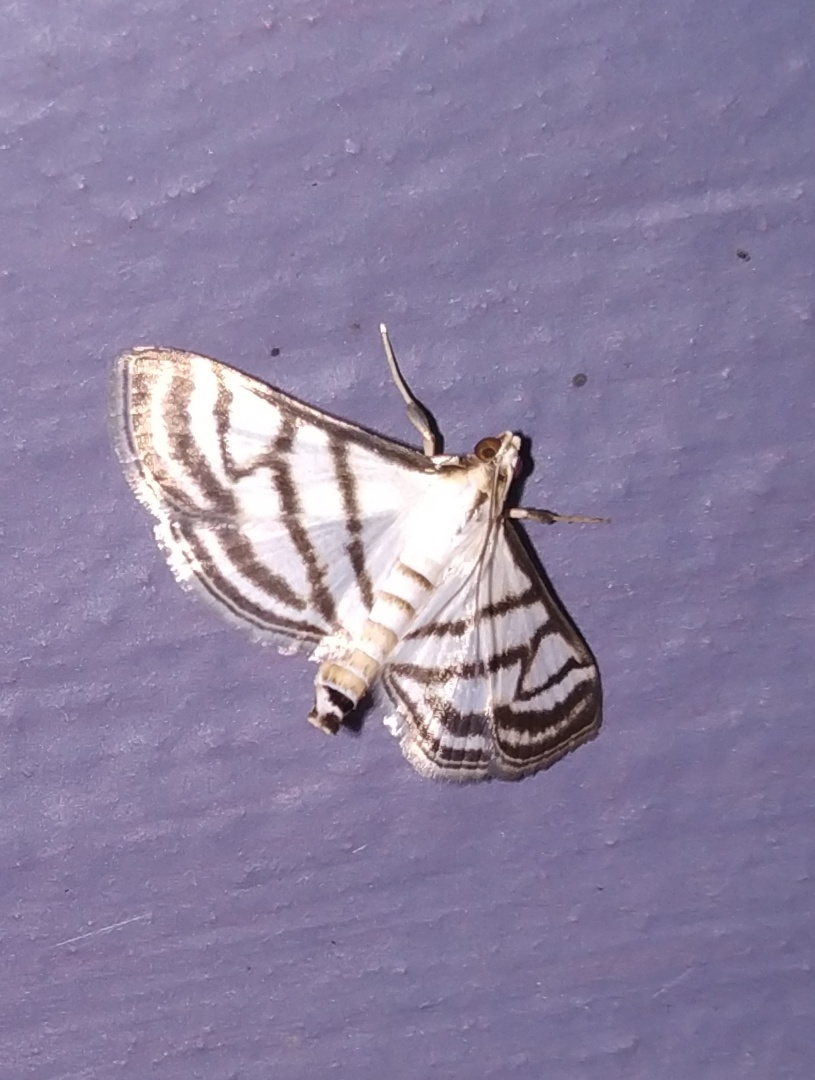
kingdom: Animalia
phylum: Arthropoda
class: Insecta
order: Lepidoptera
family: Crambidae
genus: Ravanoa
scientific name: Ravanoa xiphialis
